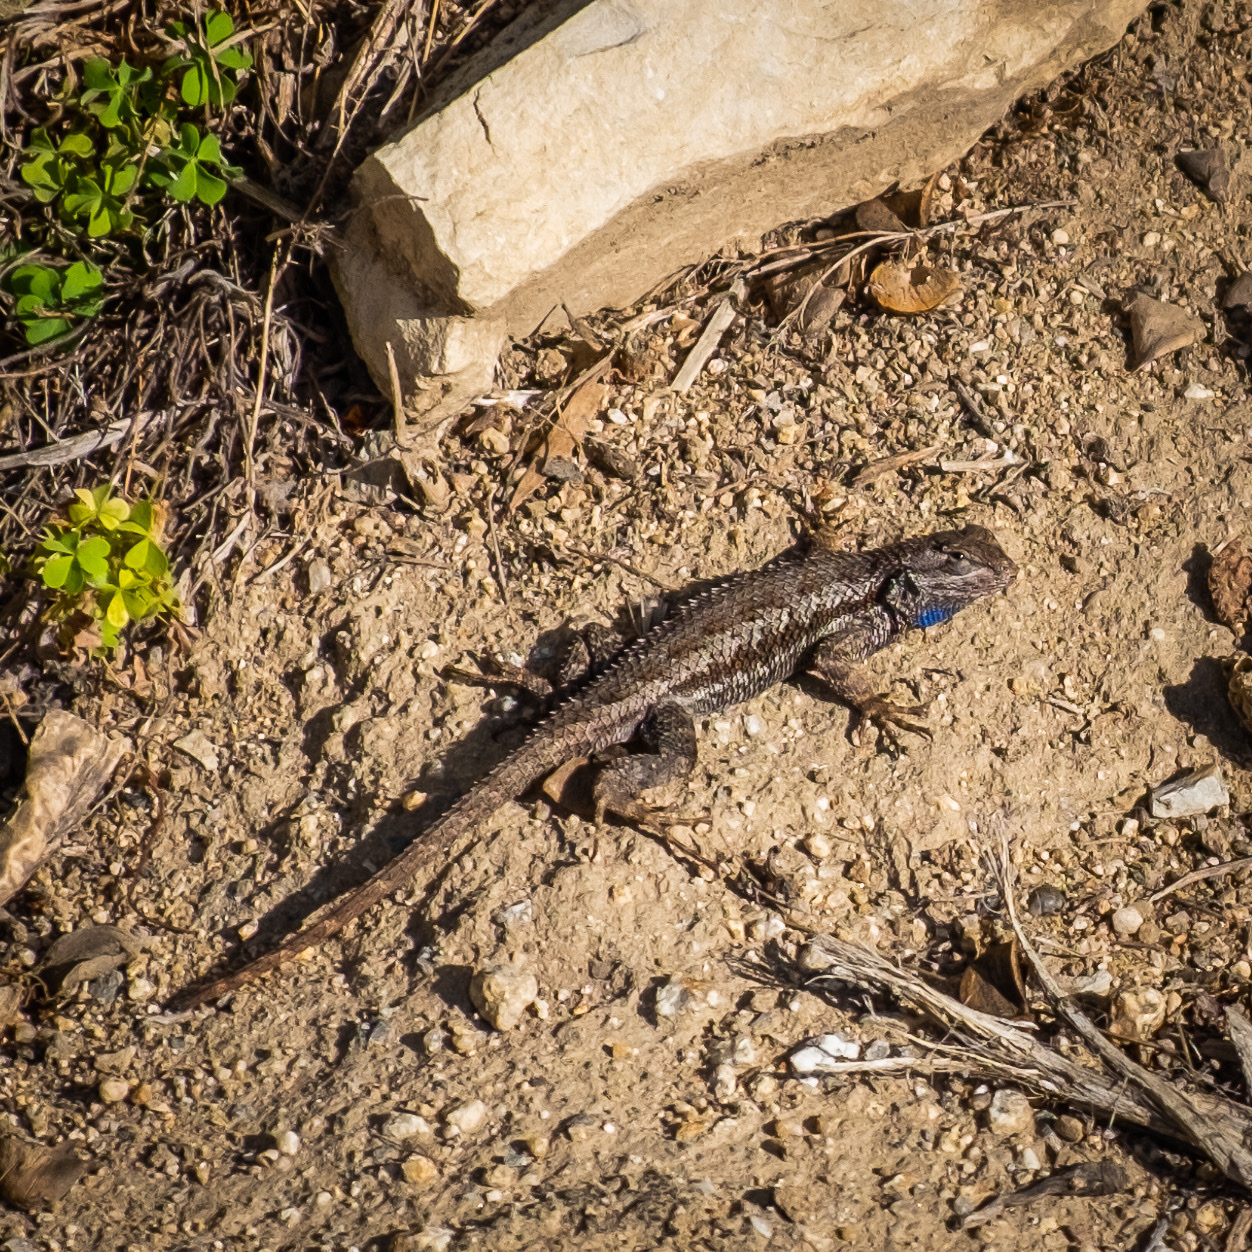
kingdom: Animalia
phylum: Chordata
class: Squamata
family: Phrynosomatidae
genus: Sceloporus
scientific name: Sceloporus occidentalis
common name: Western fence lizard
